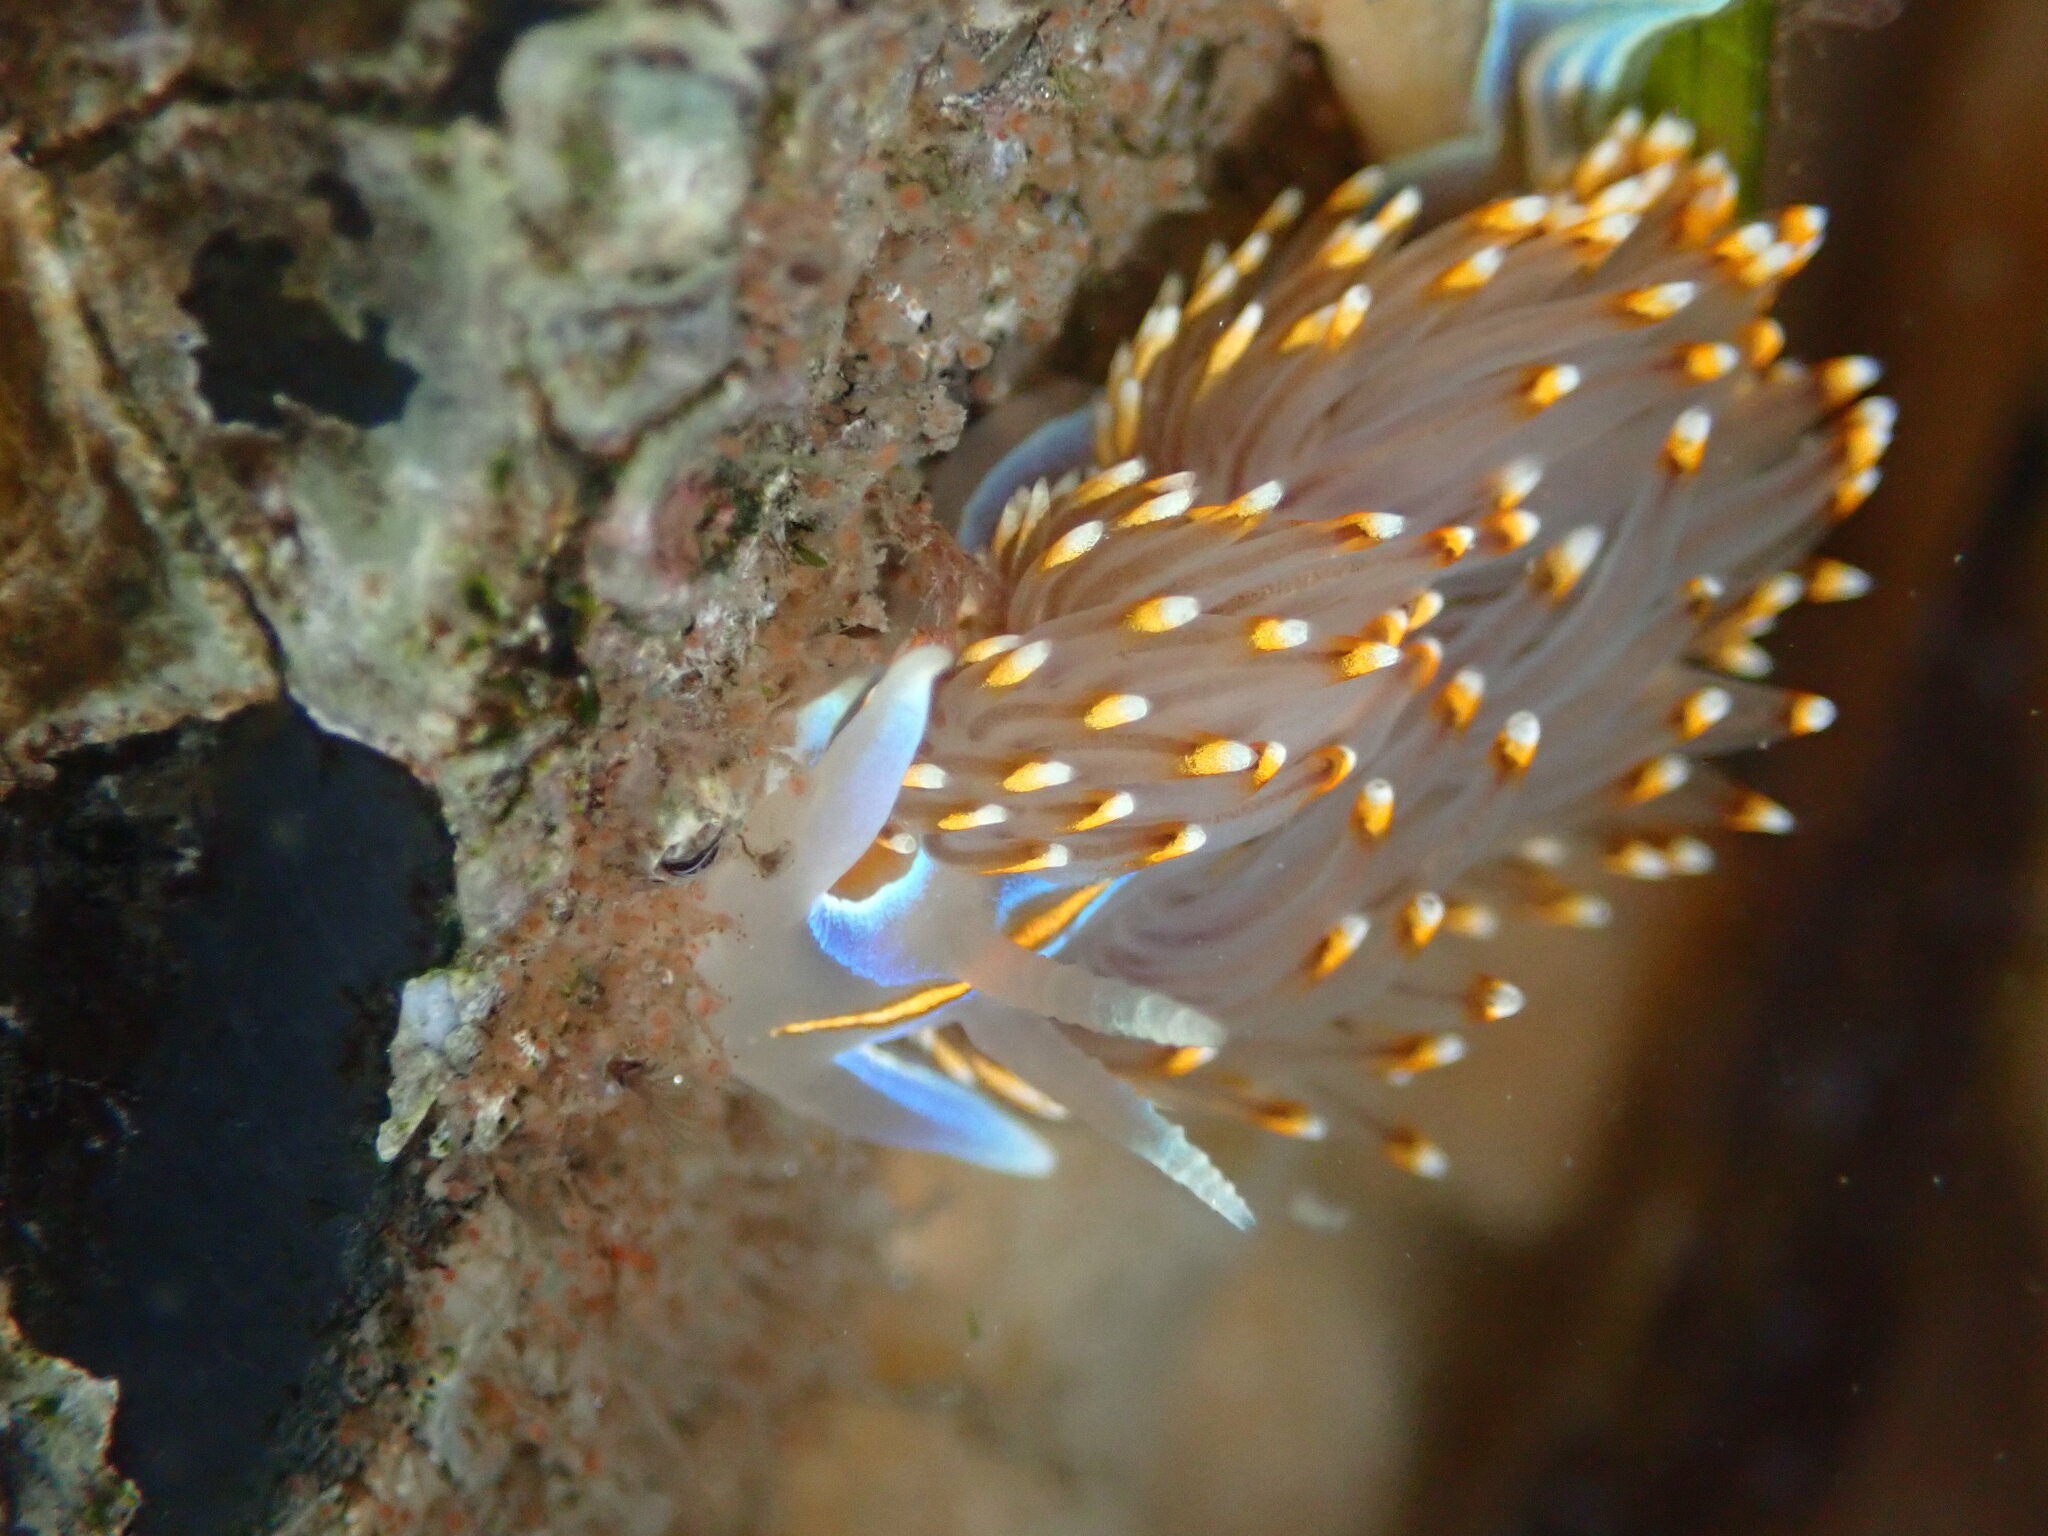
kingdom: Animalia
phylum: Mollusca
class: Gastropoda
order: Nudibranchia
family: Myrrhinidae
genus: Hermissenda
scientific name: Hermissenda opalescens
